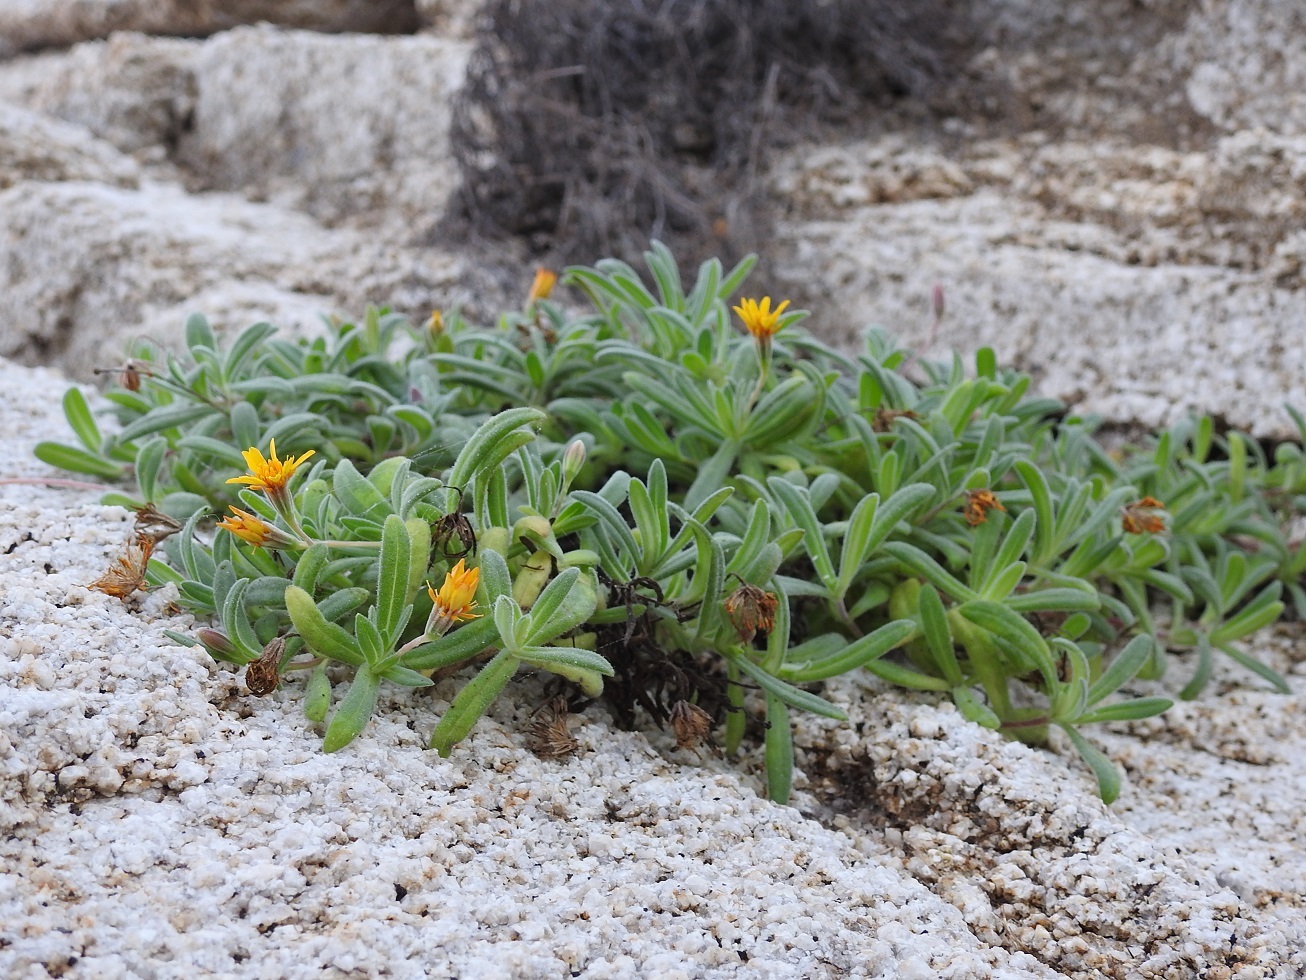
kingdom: Plantae
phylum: Tracheophyta
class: Magnoliopsida
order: Asterales
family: Asteraceae
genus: Pectis
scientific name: Pectis multiflosculosa
